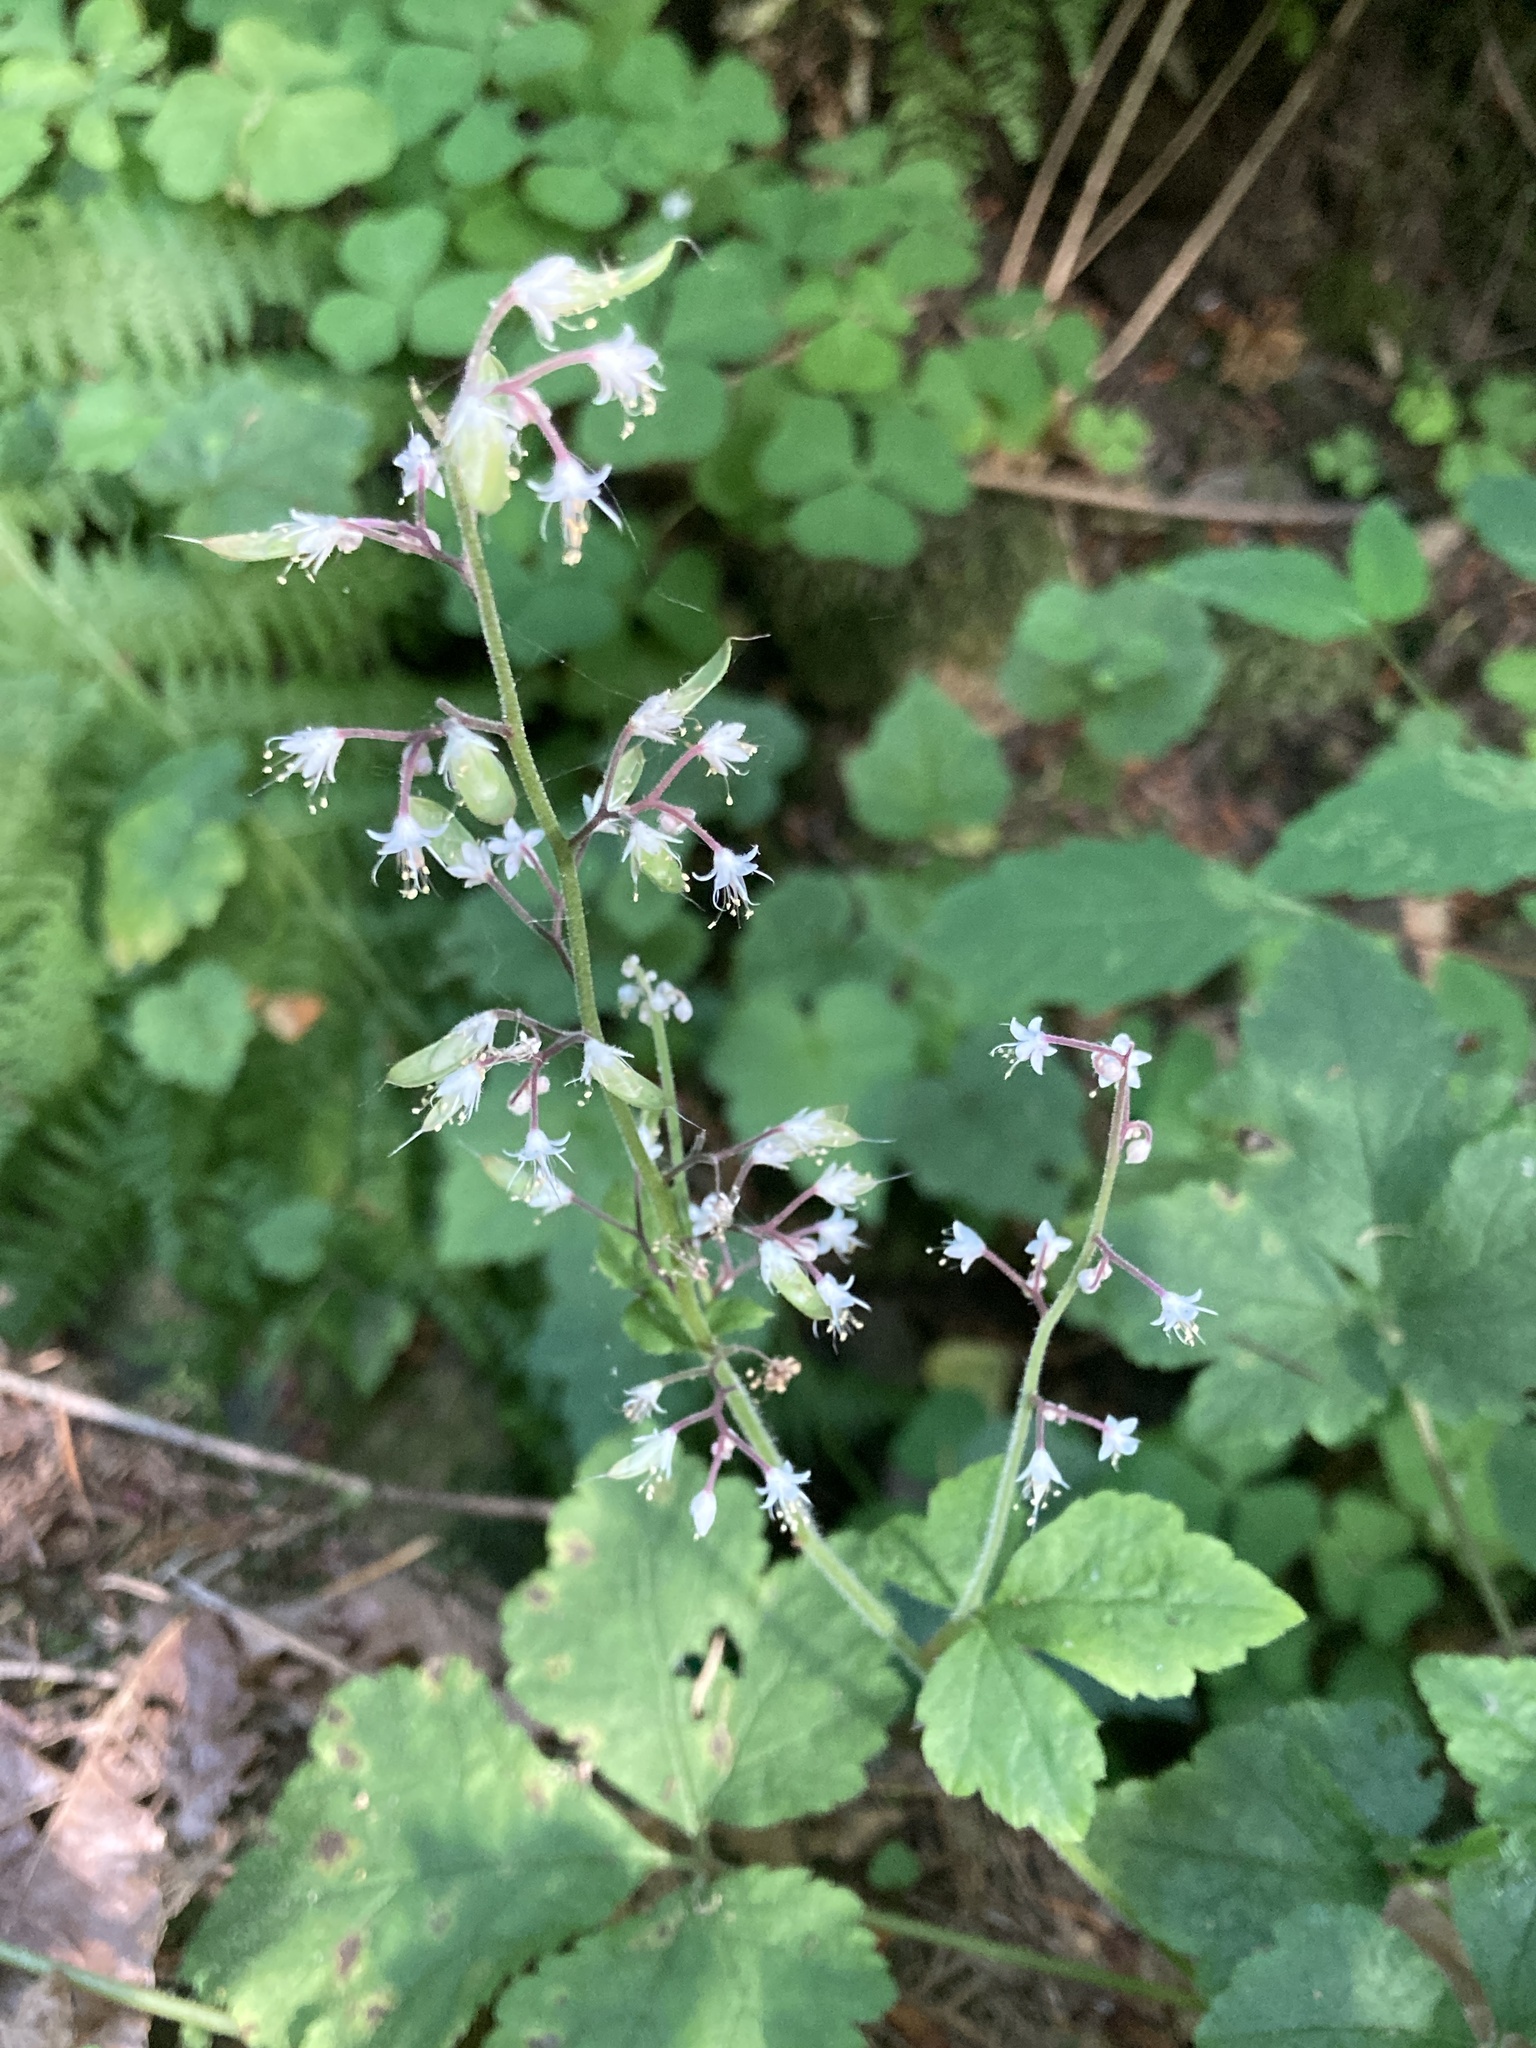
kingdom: Plantae
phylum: Tracheophyta
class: Magnoliopsida
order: Saxifragales
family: Saxifragaceae
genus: Tiarella
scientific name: Tiarella trifoliata
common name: Sugar-scoop
